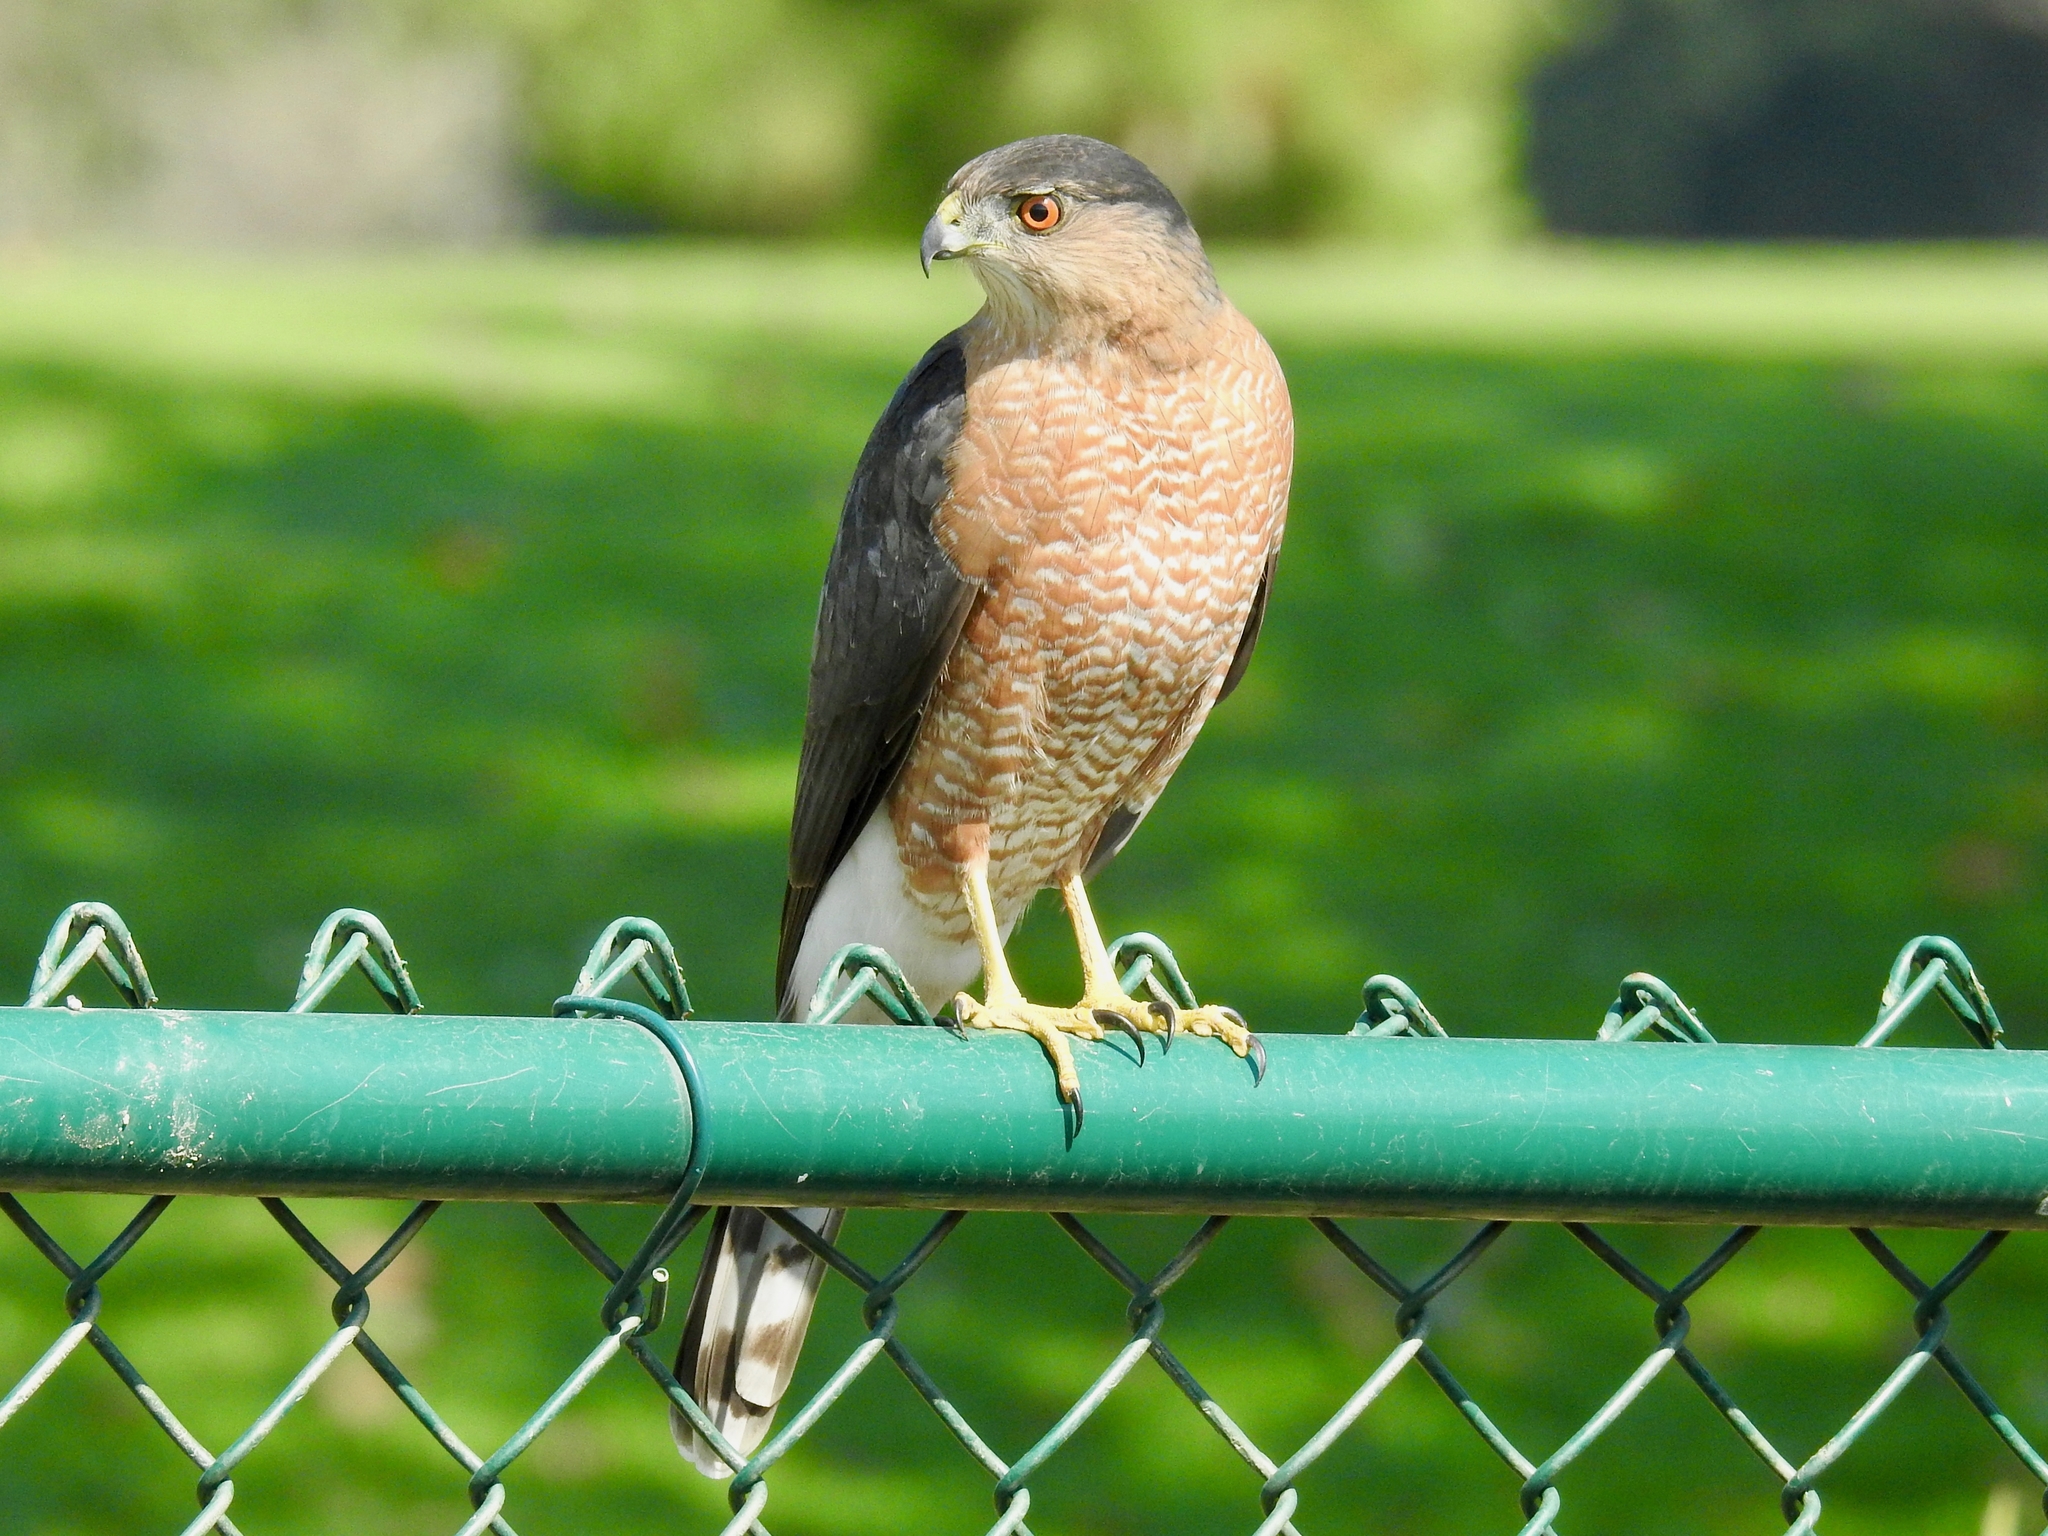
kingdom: Animalia
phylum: Chordata
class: Aves
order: Accipitriformes
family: Accipitridae
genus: Accipiter
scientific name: Accipiter cooperii
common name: Cooper's hawk
